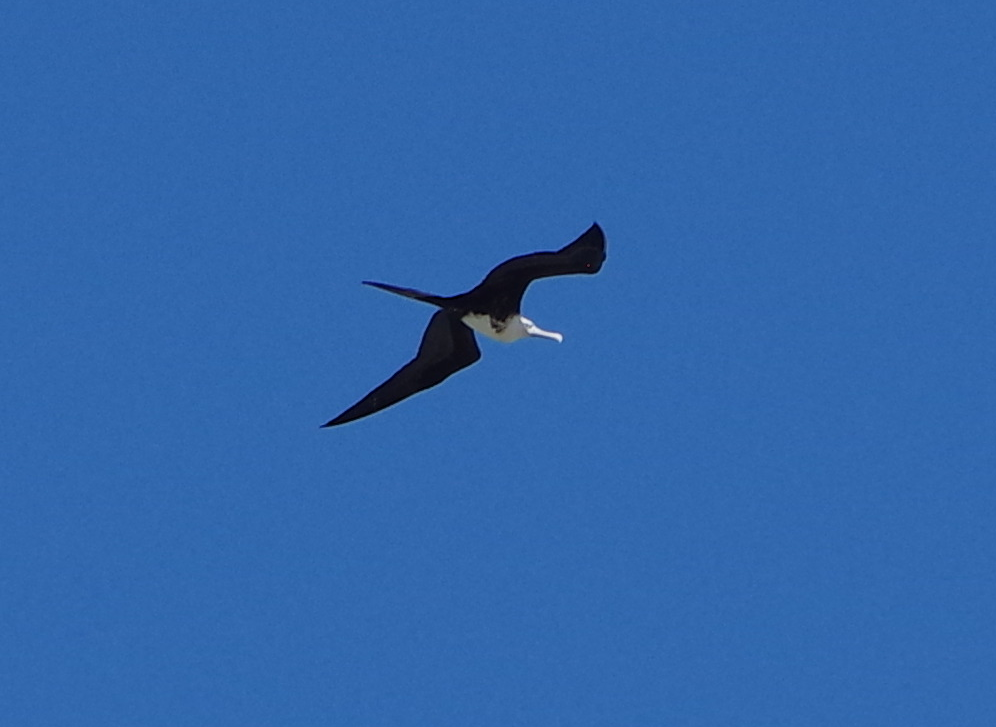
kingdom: Animalia
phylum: Chordata
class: Aves
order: Suliformes
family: Fregatidae
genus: Fregata
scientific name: Fregata magnificens
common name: Magnificent frigatebird
